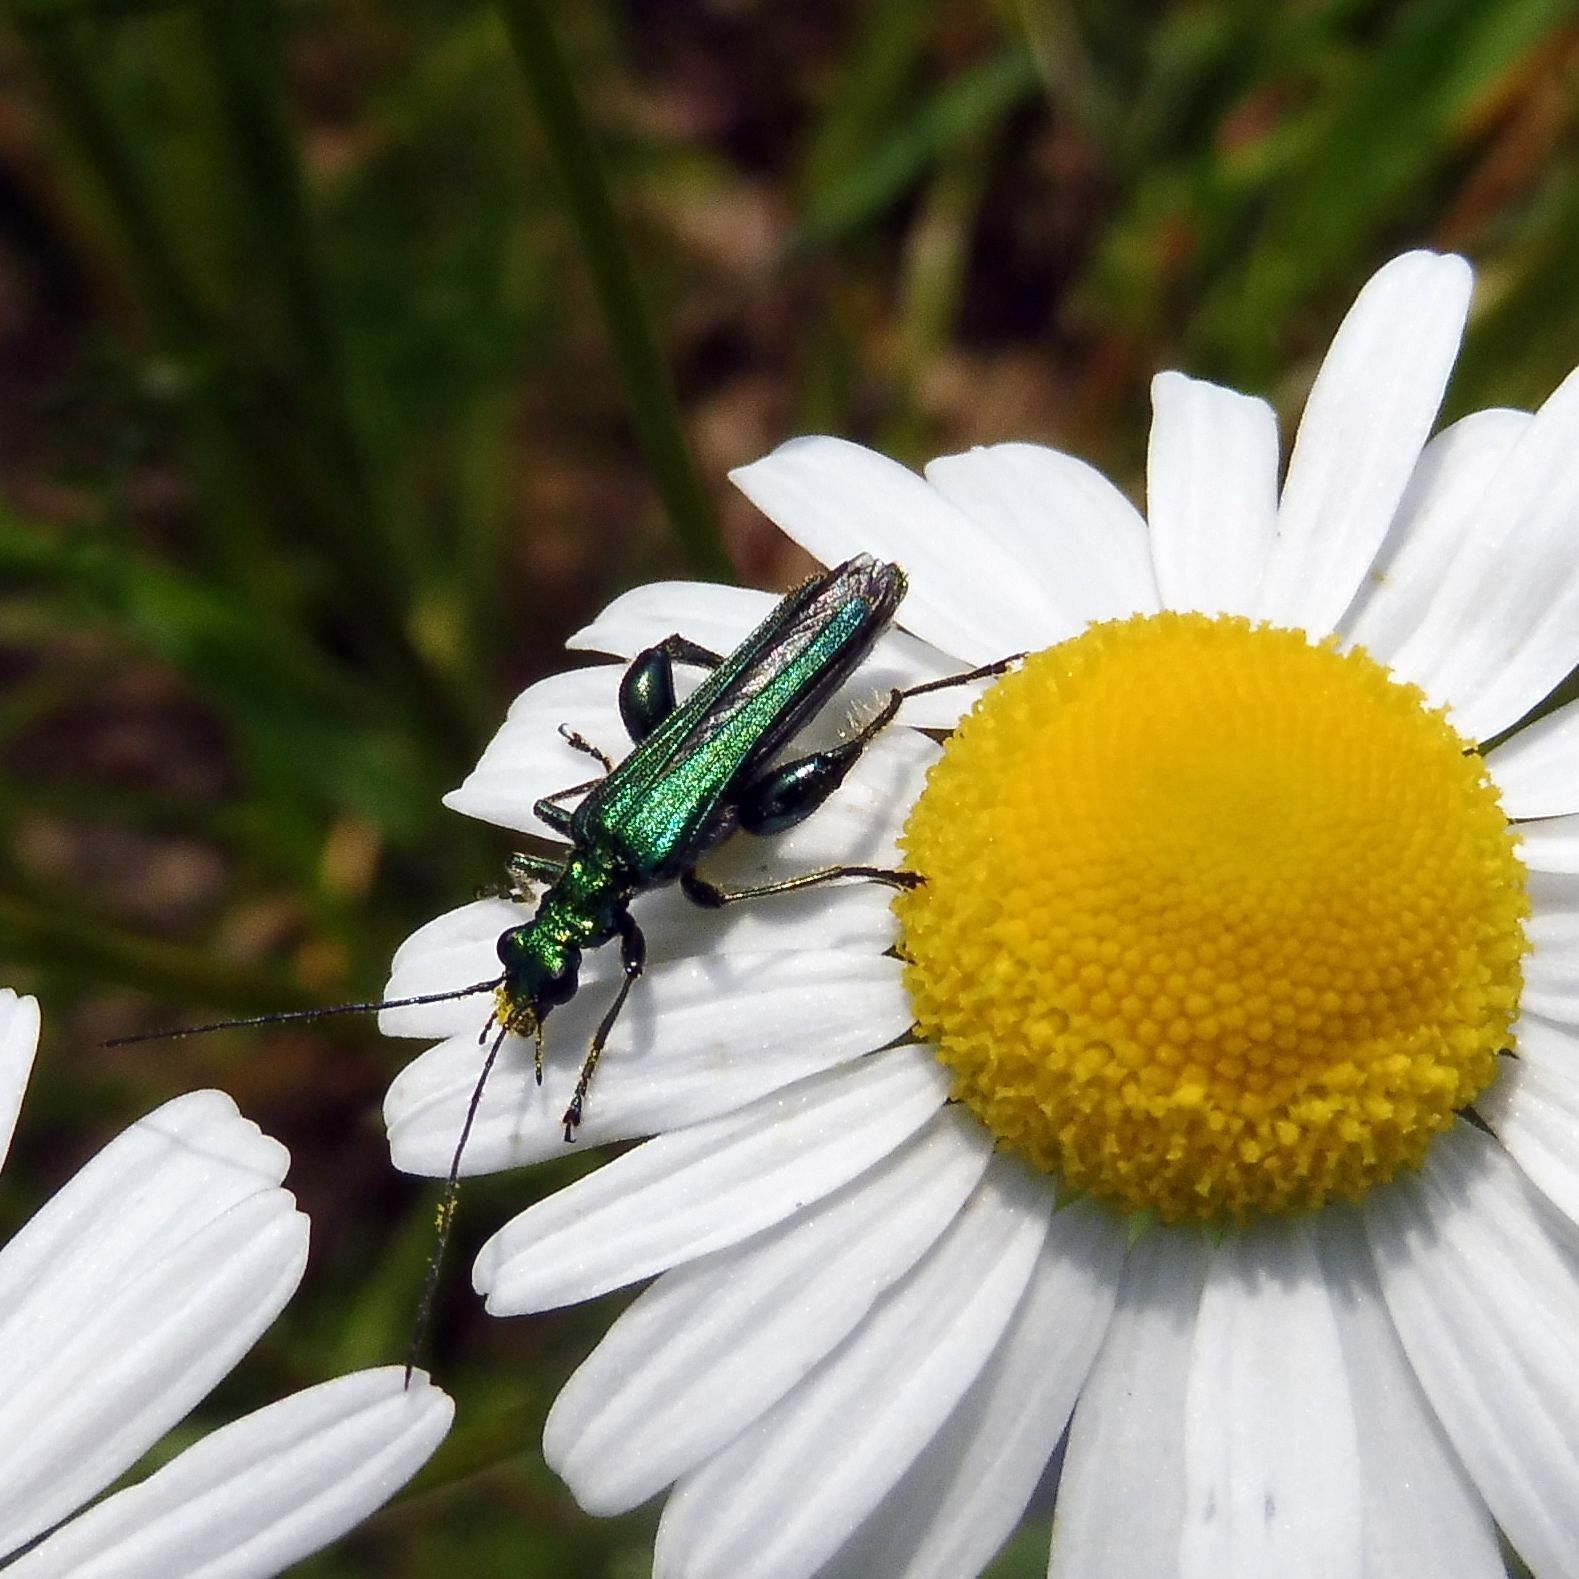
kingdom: Animalia
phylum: Arthropoda
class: Insecta
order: Coleoptera
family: Oedemeridae
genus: Oedemera
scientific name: Oedemera nobilis
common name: Swollen-thighed beetle
